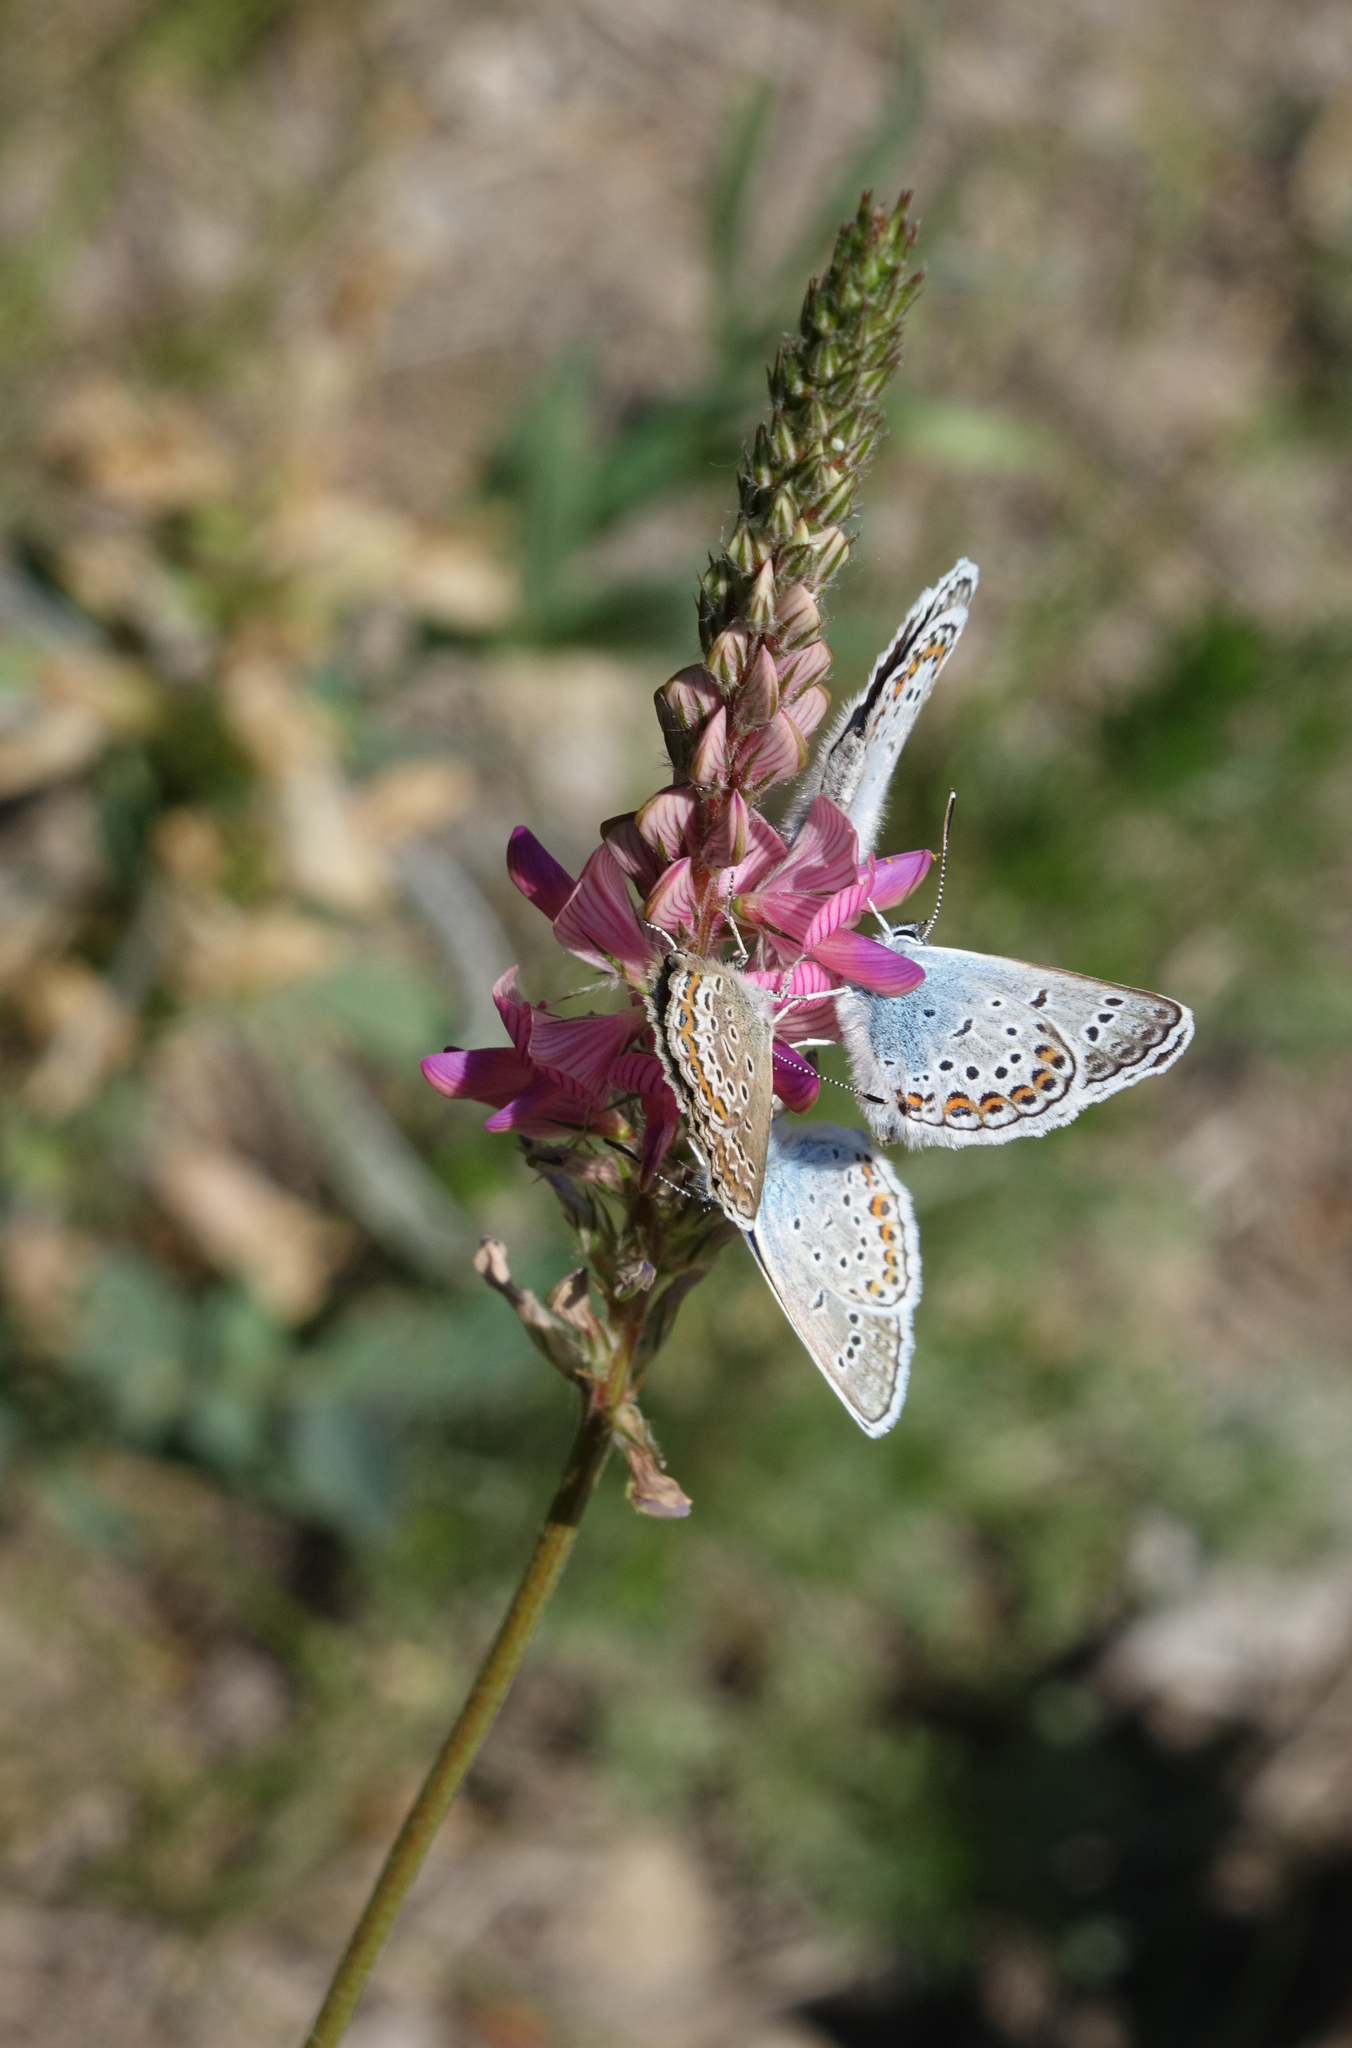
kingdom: Animalia
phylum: Arthropoda
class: Insecta
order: Lepidoptera
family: Lycaenidae
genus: Plebejus
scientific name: Plebejus argus
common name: Silver-studded blue
